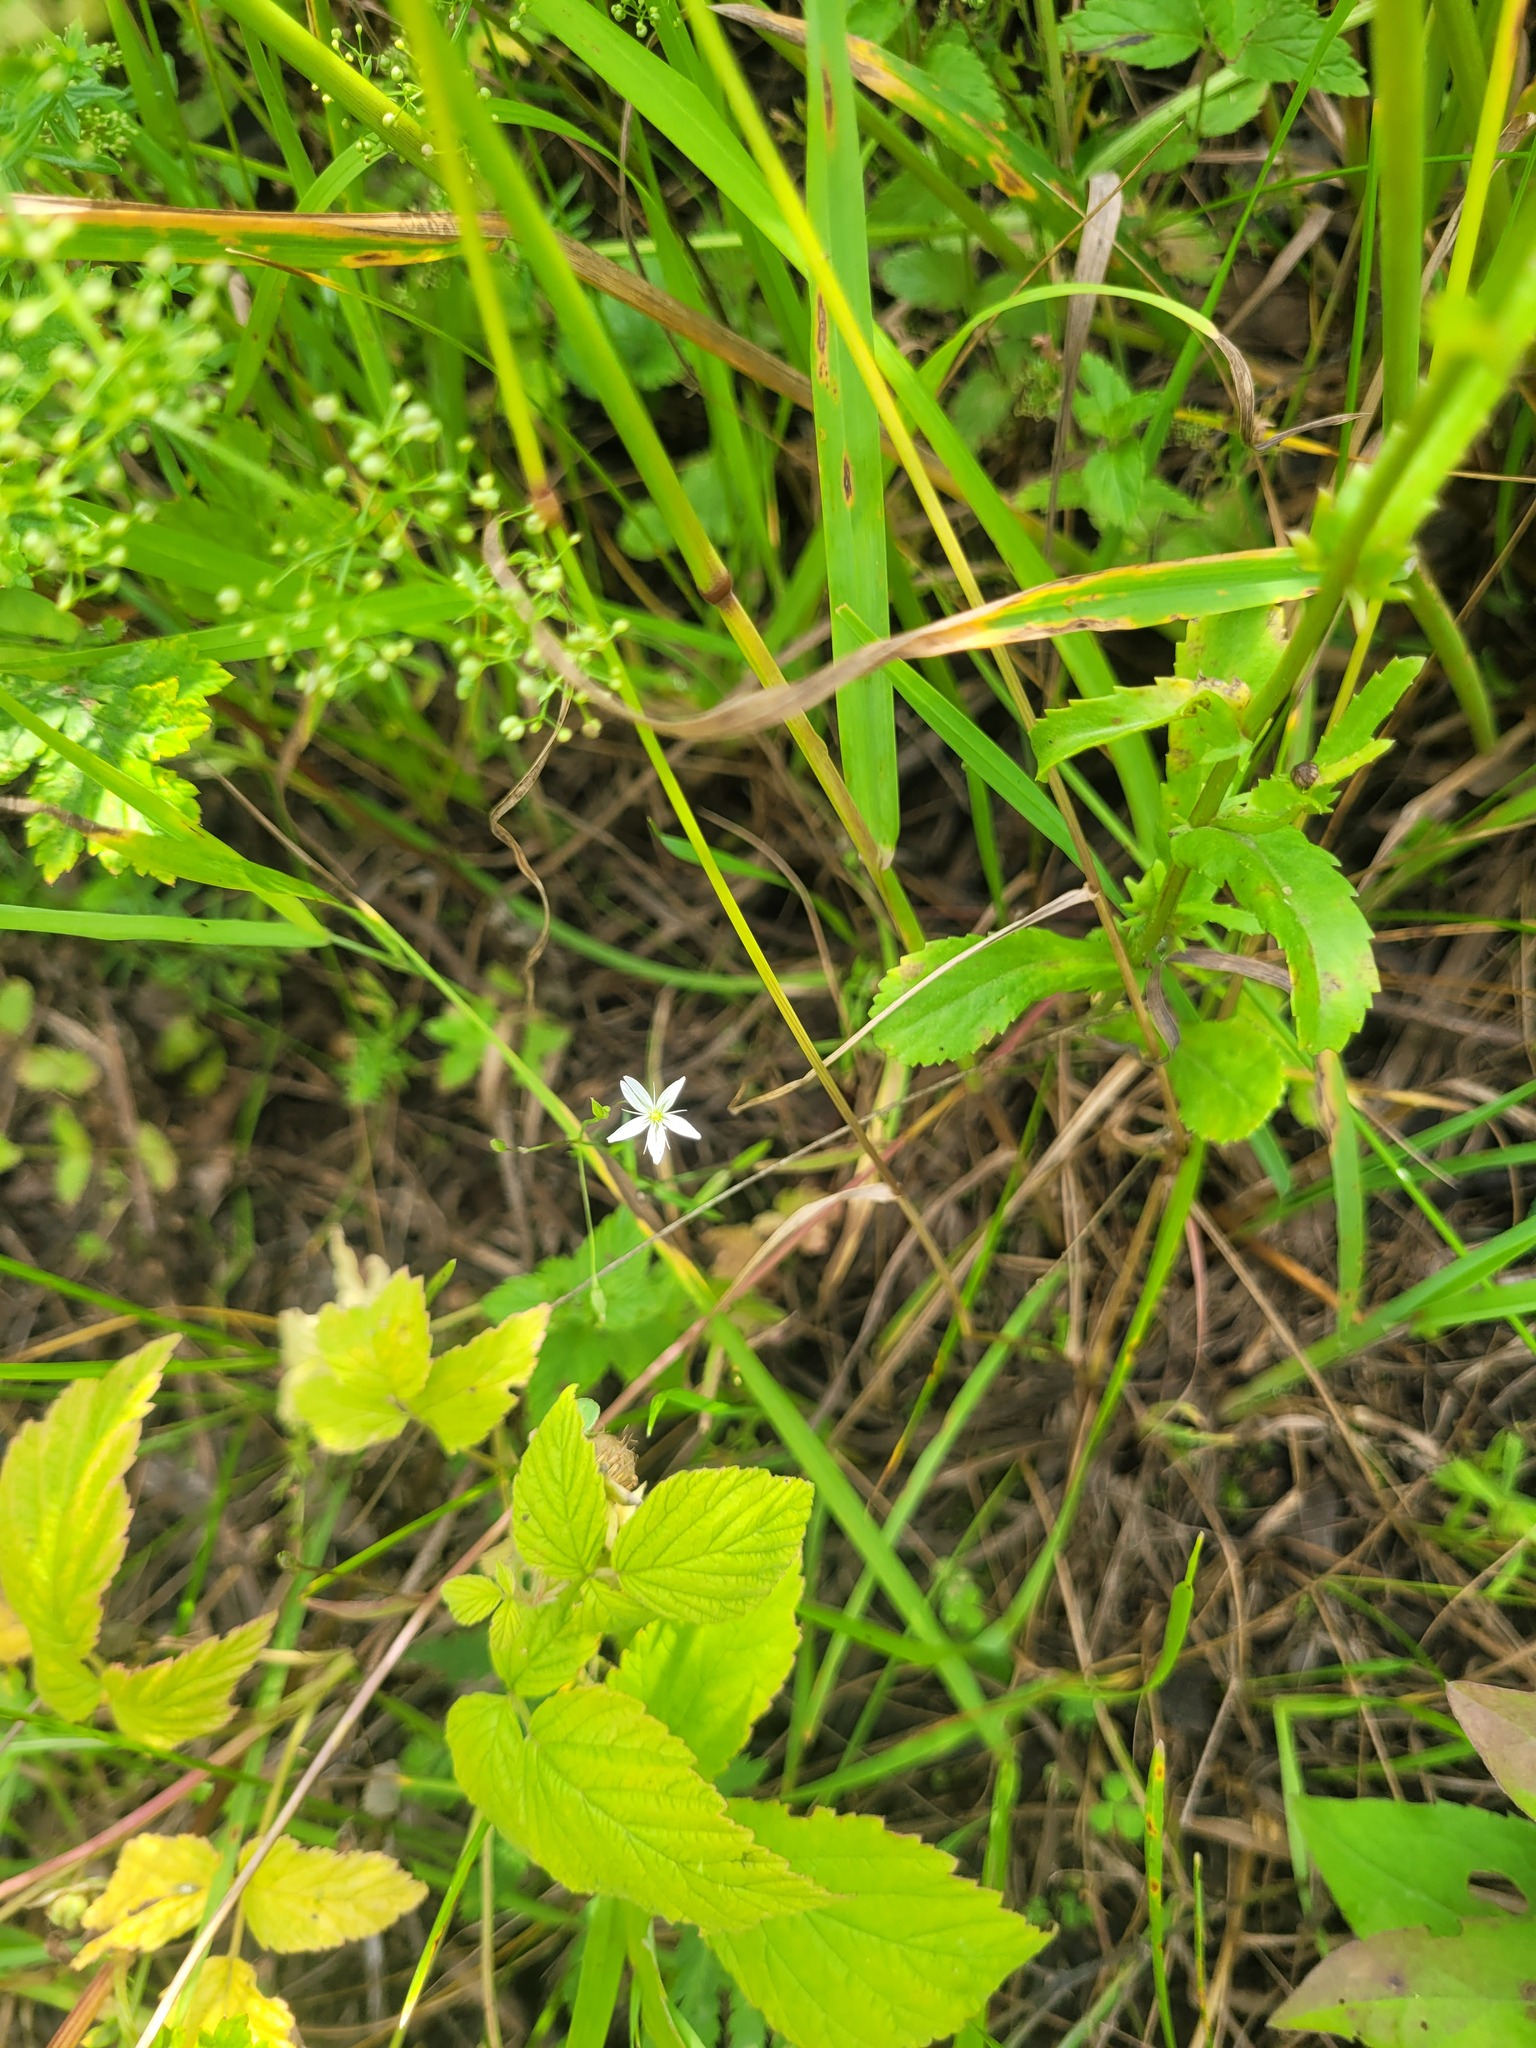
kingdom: Plantae
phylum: Tracheophyta
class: Magnoliopsida
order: Caryophyllales
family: Caryophyllaceae
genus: Stellaria
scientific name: Stellaria graminea
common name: Grass-like starwort
